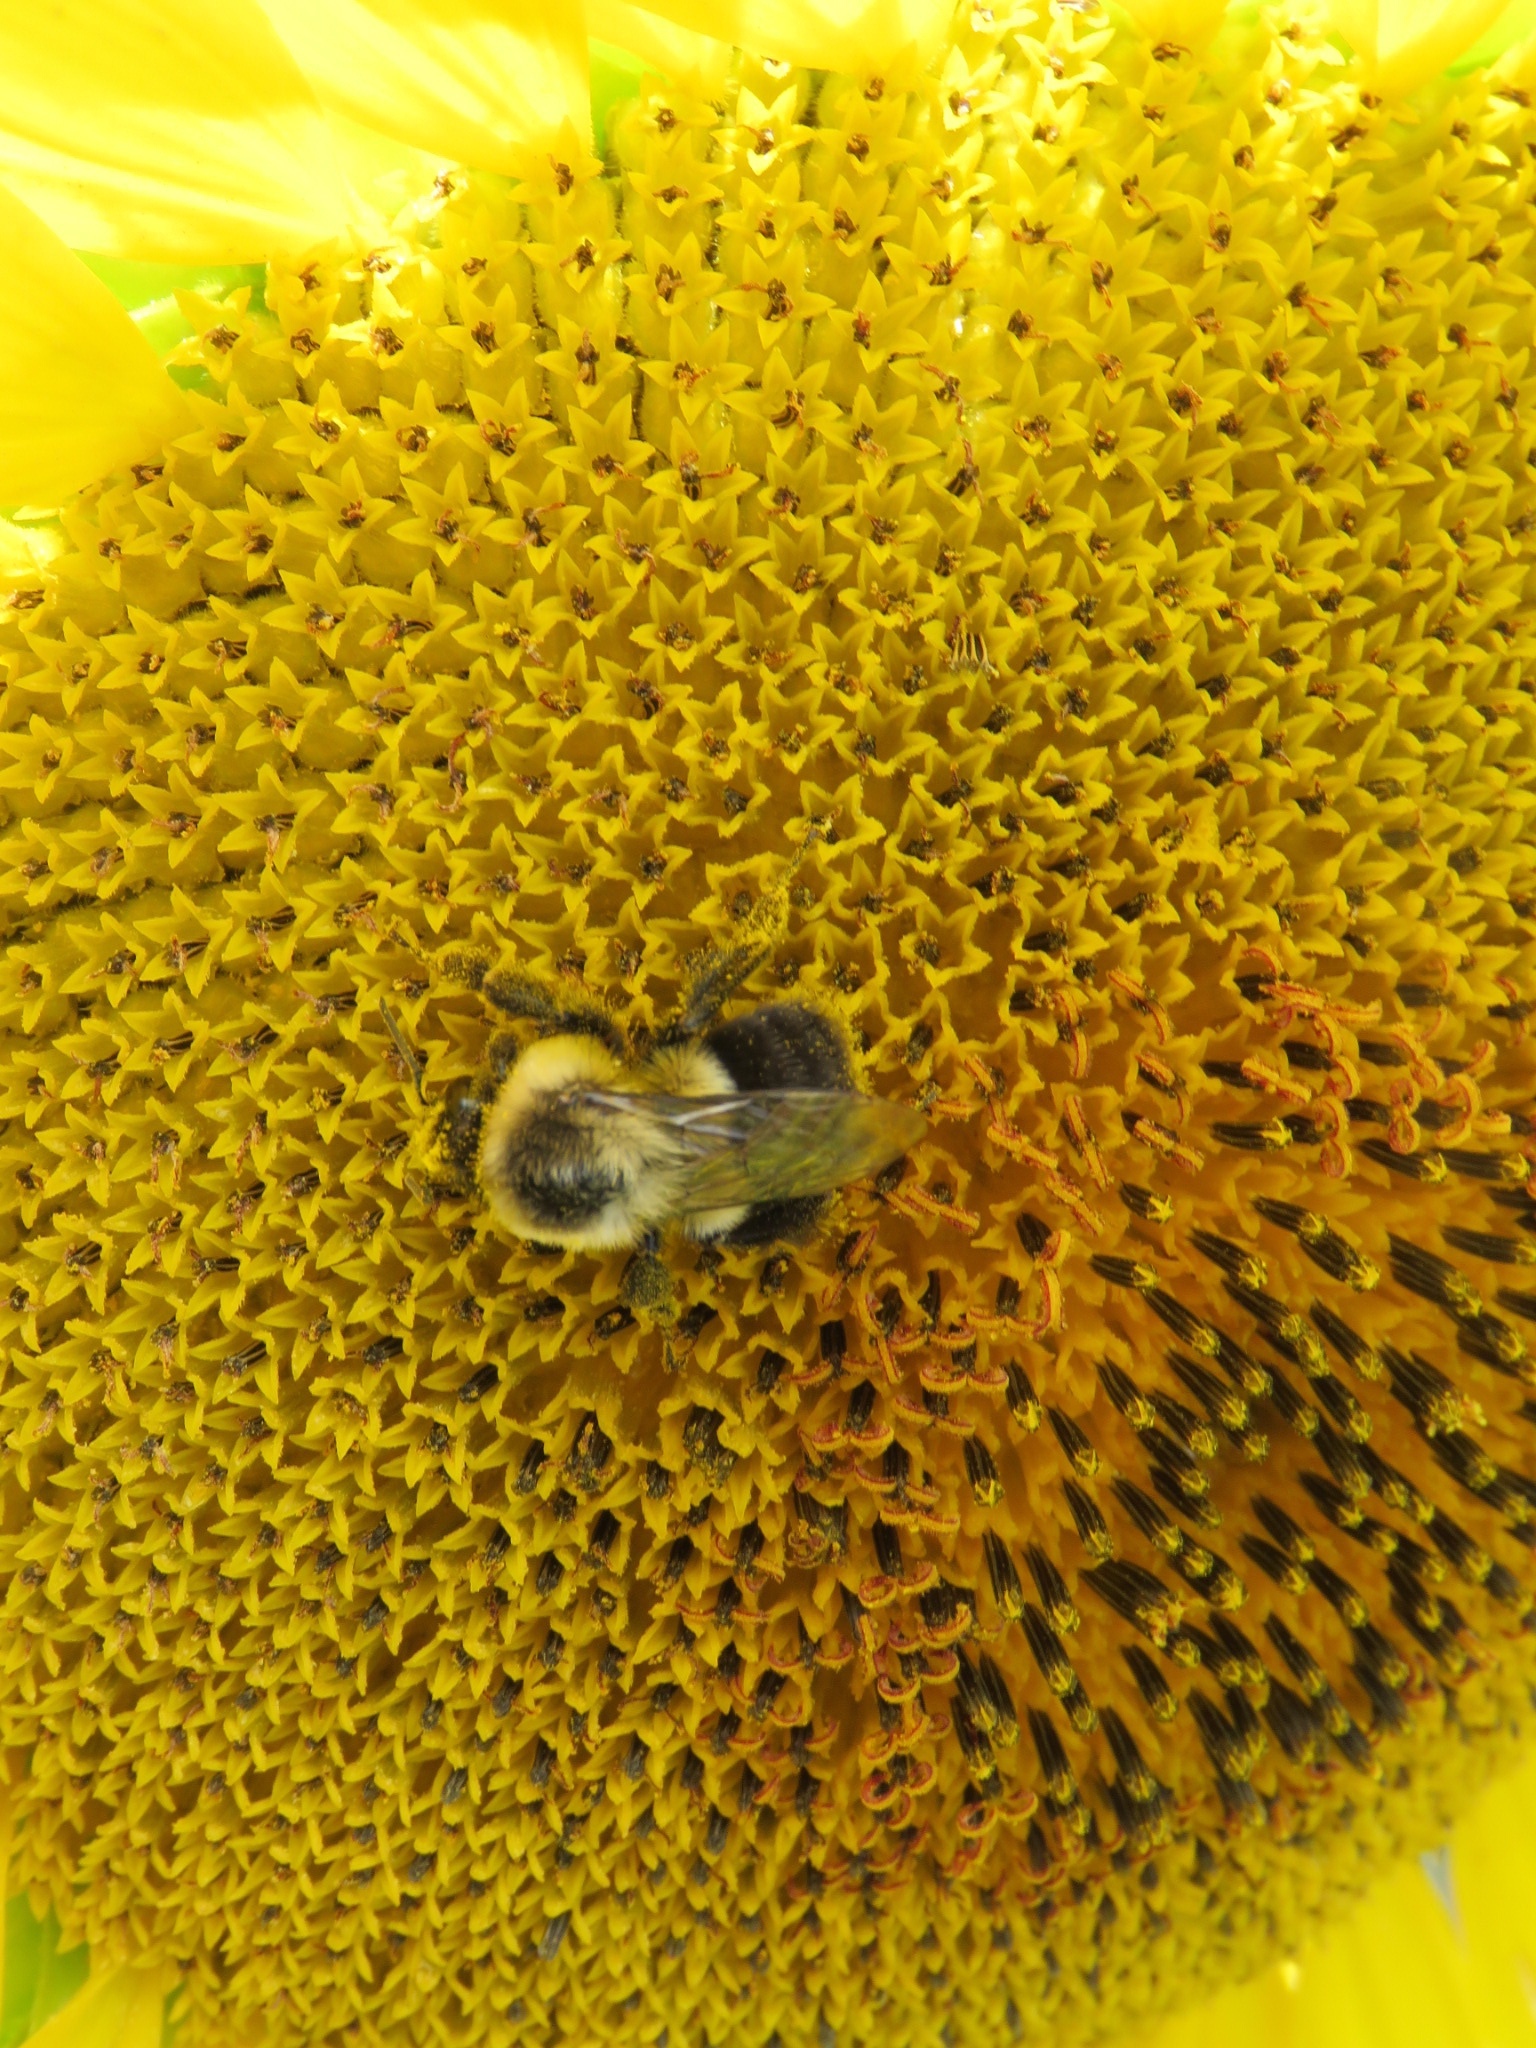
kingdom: Animalia
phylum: Arthropoda
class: Insecta
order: Hymenoptera
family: Apidae
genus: Bombus
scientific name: Bombus impatiens
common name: Common eastern bumble bee
